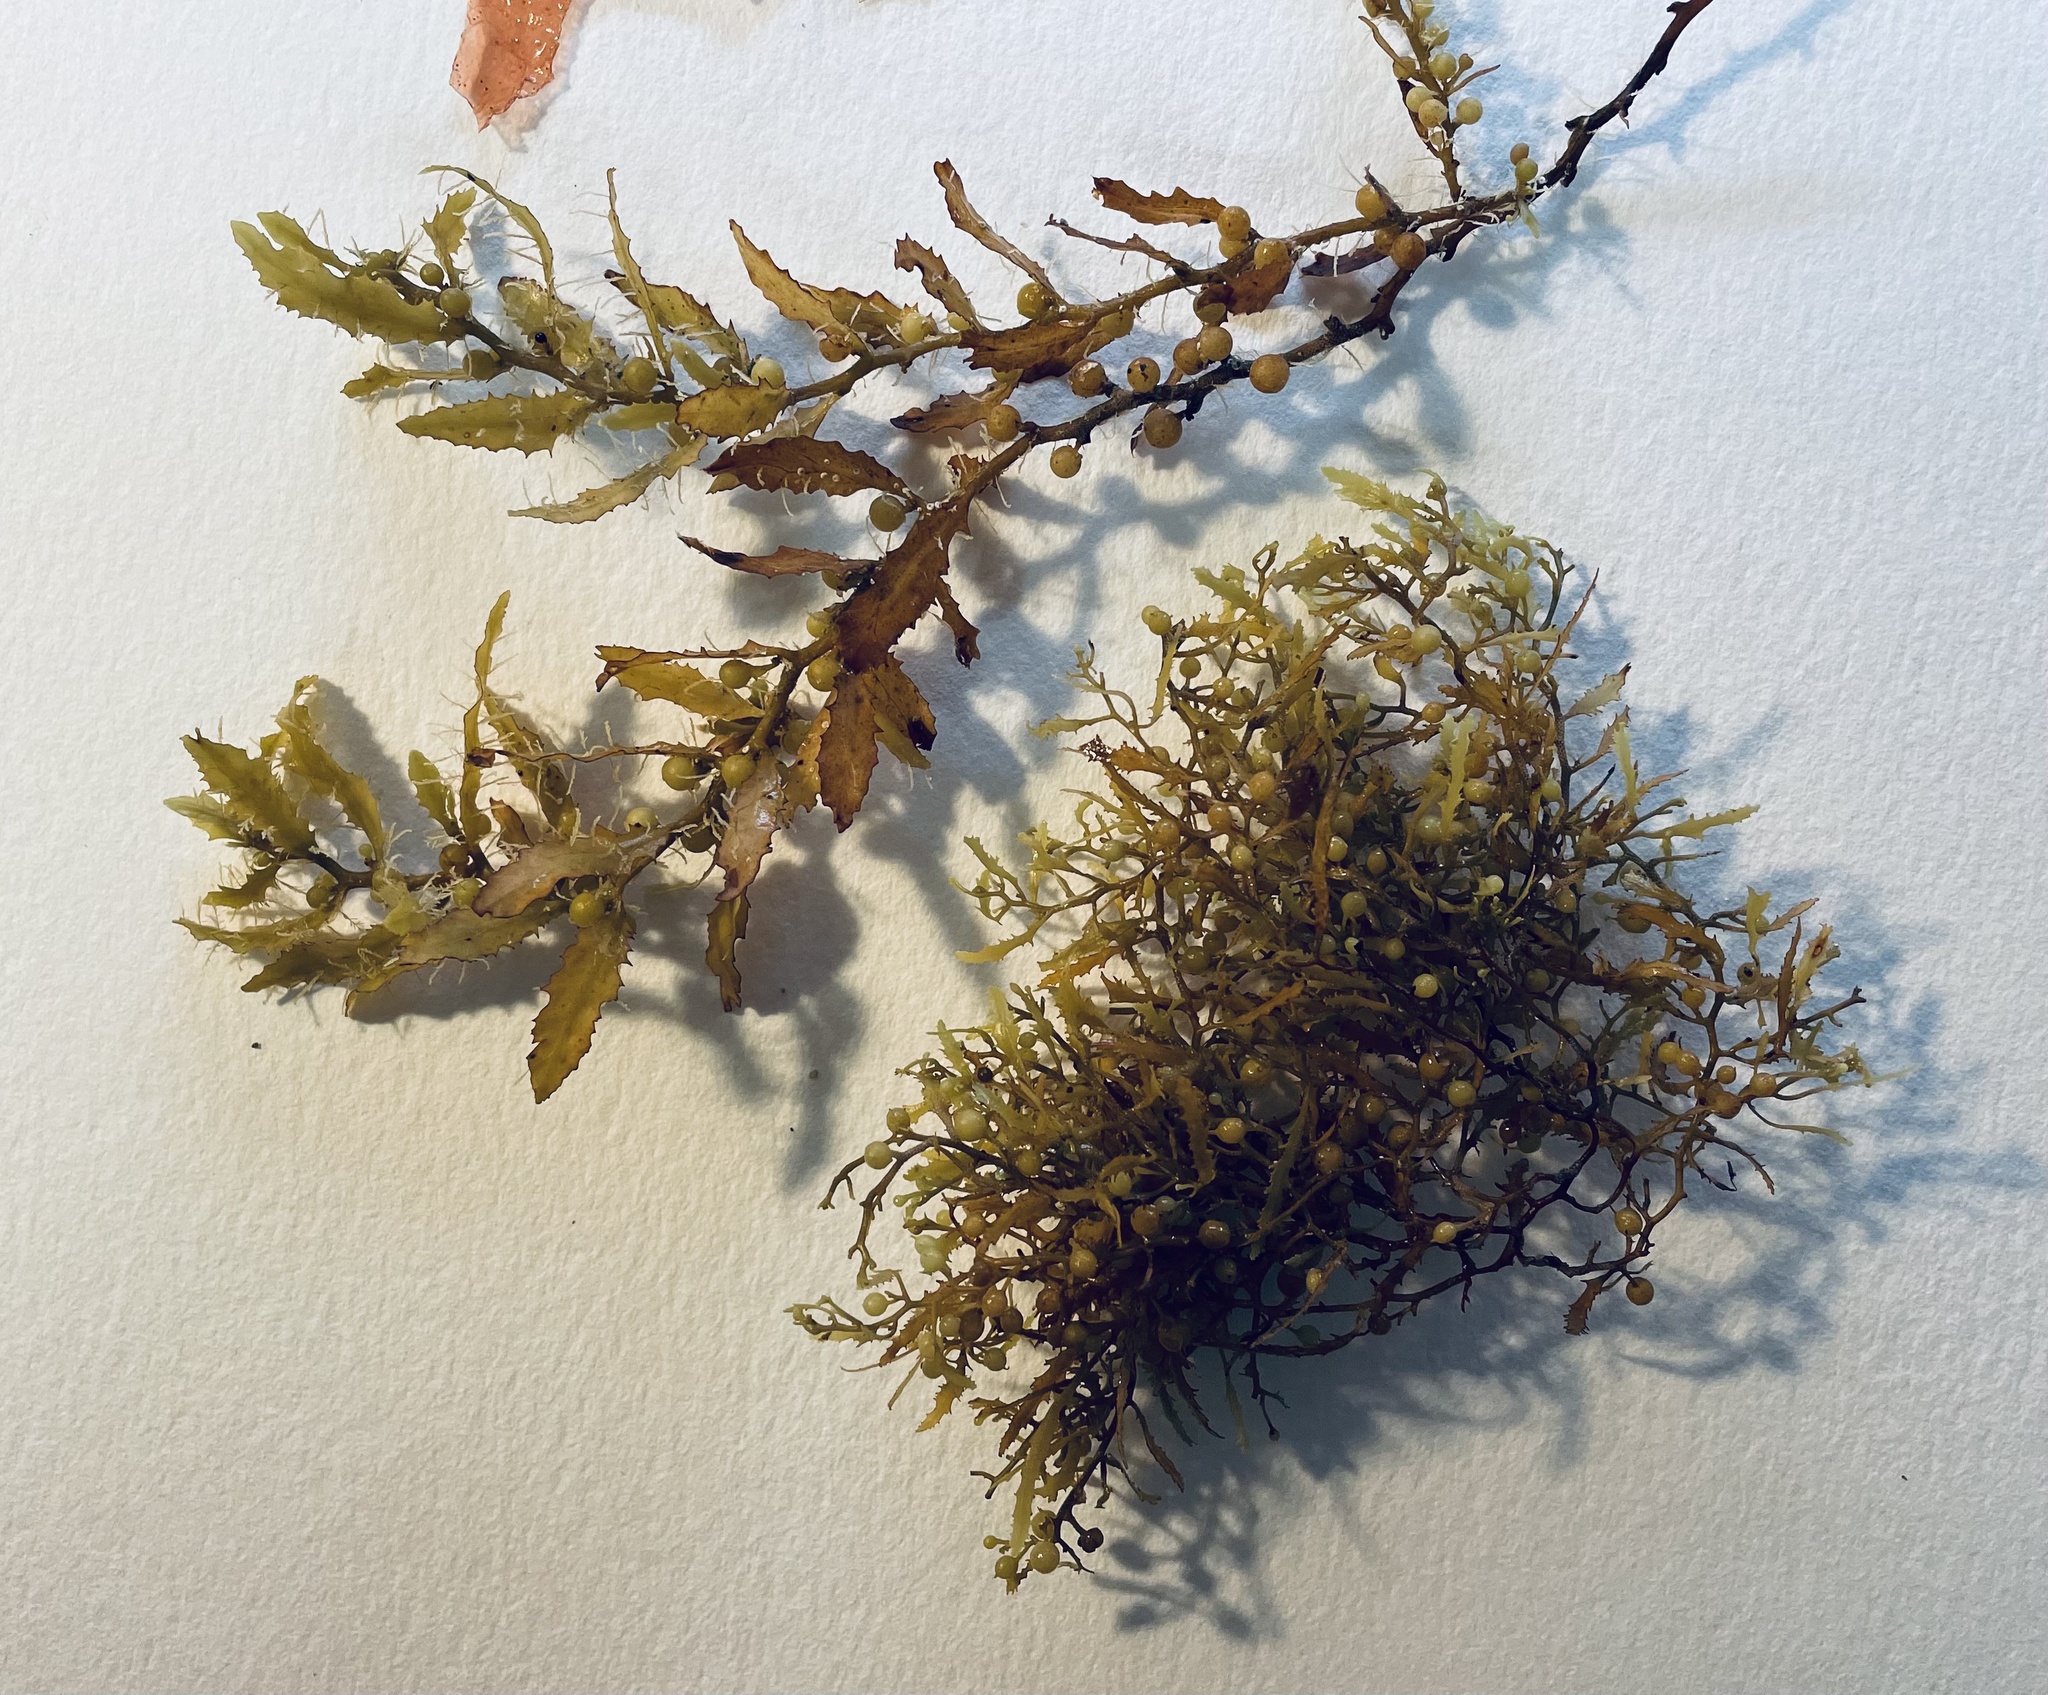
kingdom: Chromista
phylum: Ochrophyta
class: Phaeophyceae
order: Fucales
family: Sargassaceae
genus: Sargassum
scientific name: Sargassum fluitans
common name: Sargassum seaweed
